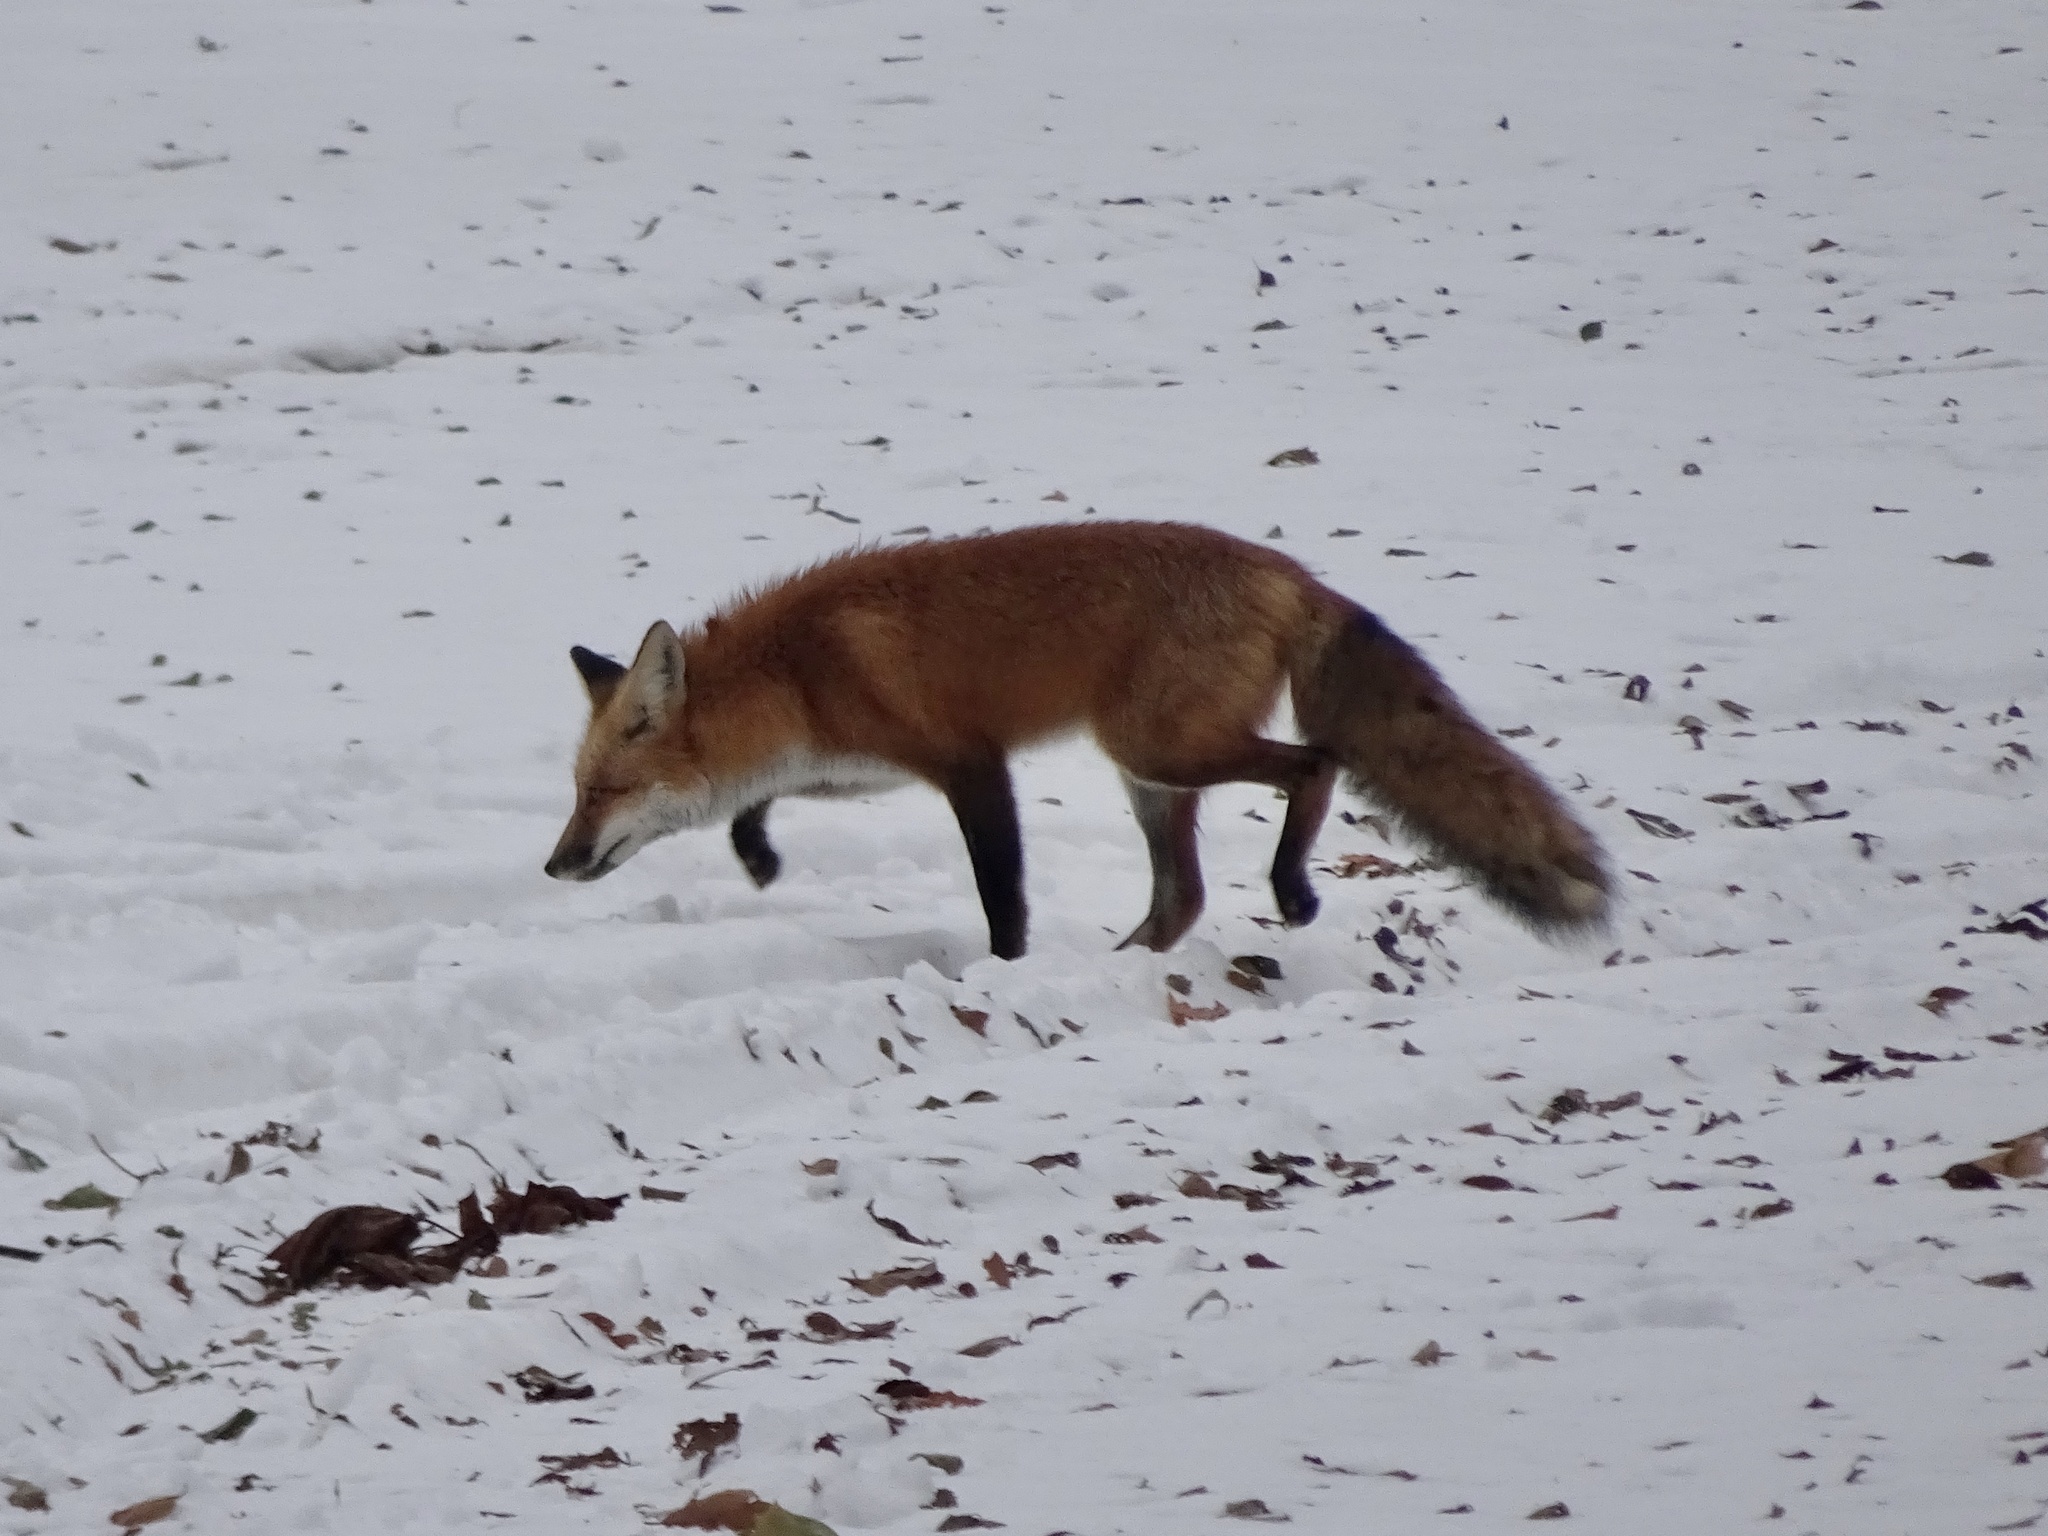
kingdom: Animalia
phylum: Chordata
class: Mammalia
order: Carnivora
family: Canidae
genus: Vulpes
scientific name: Vulpes vulpes
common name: Red fox
